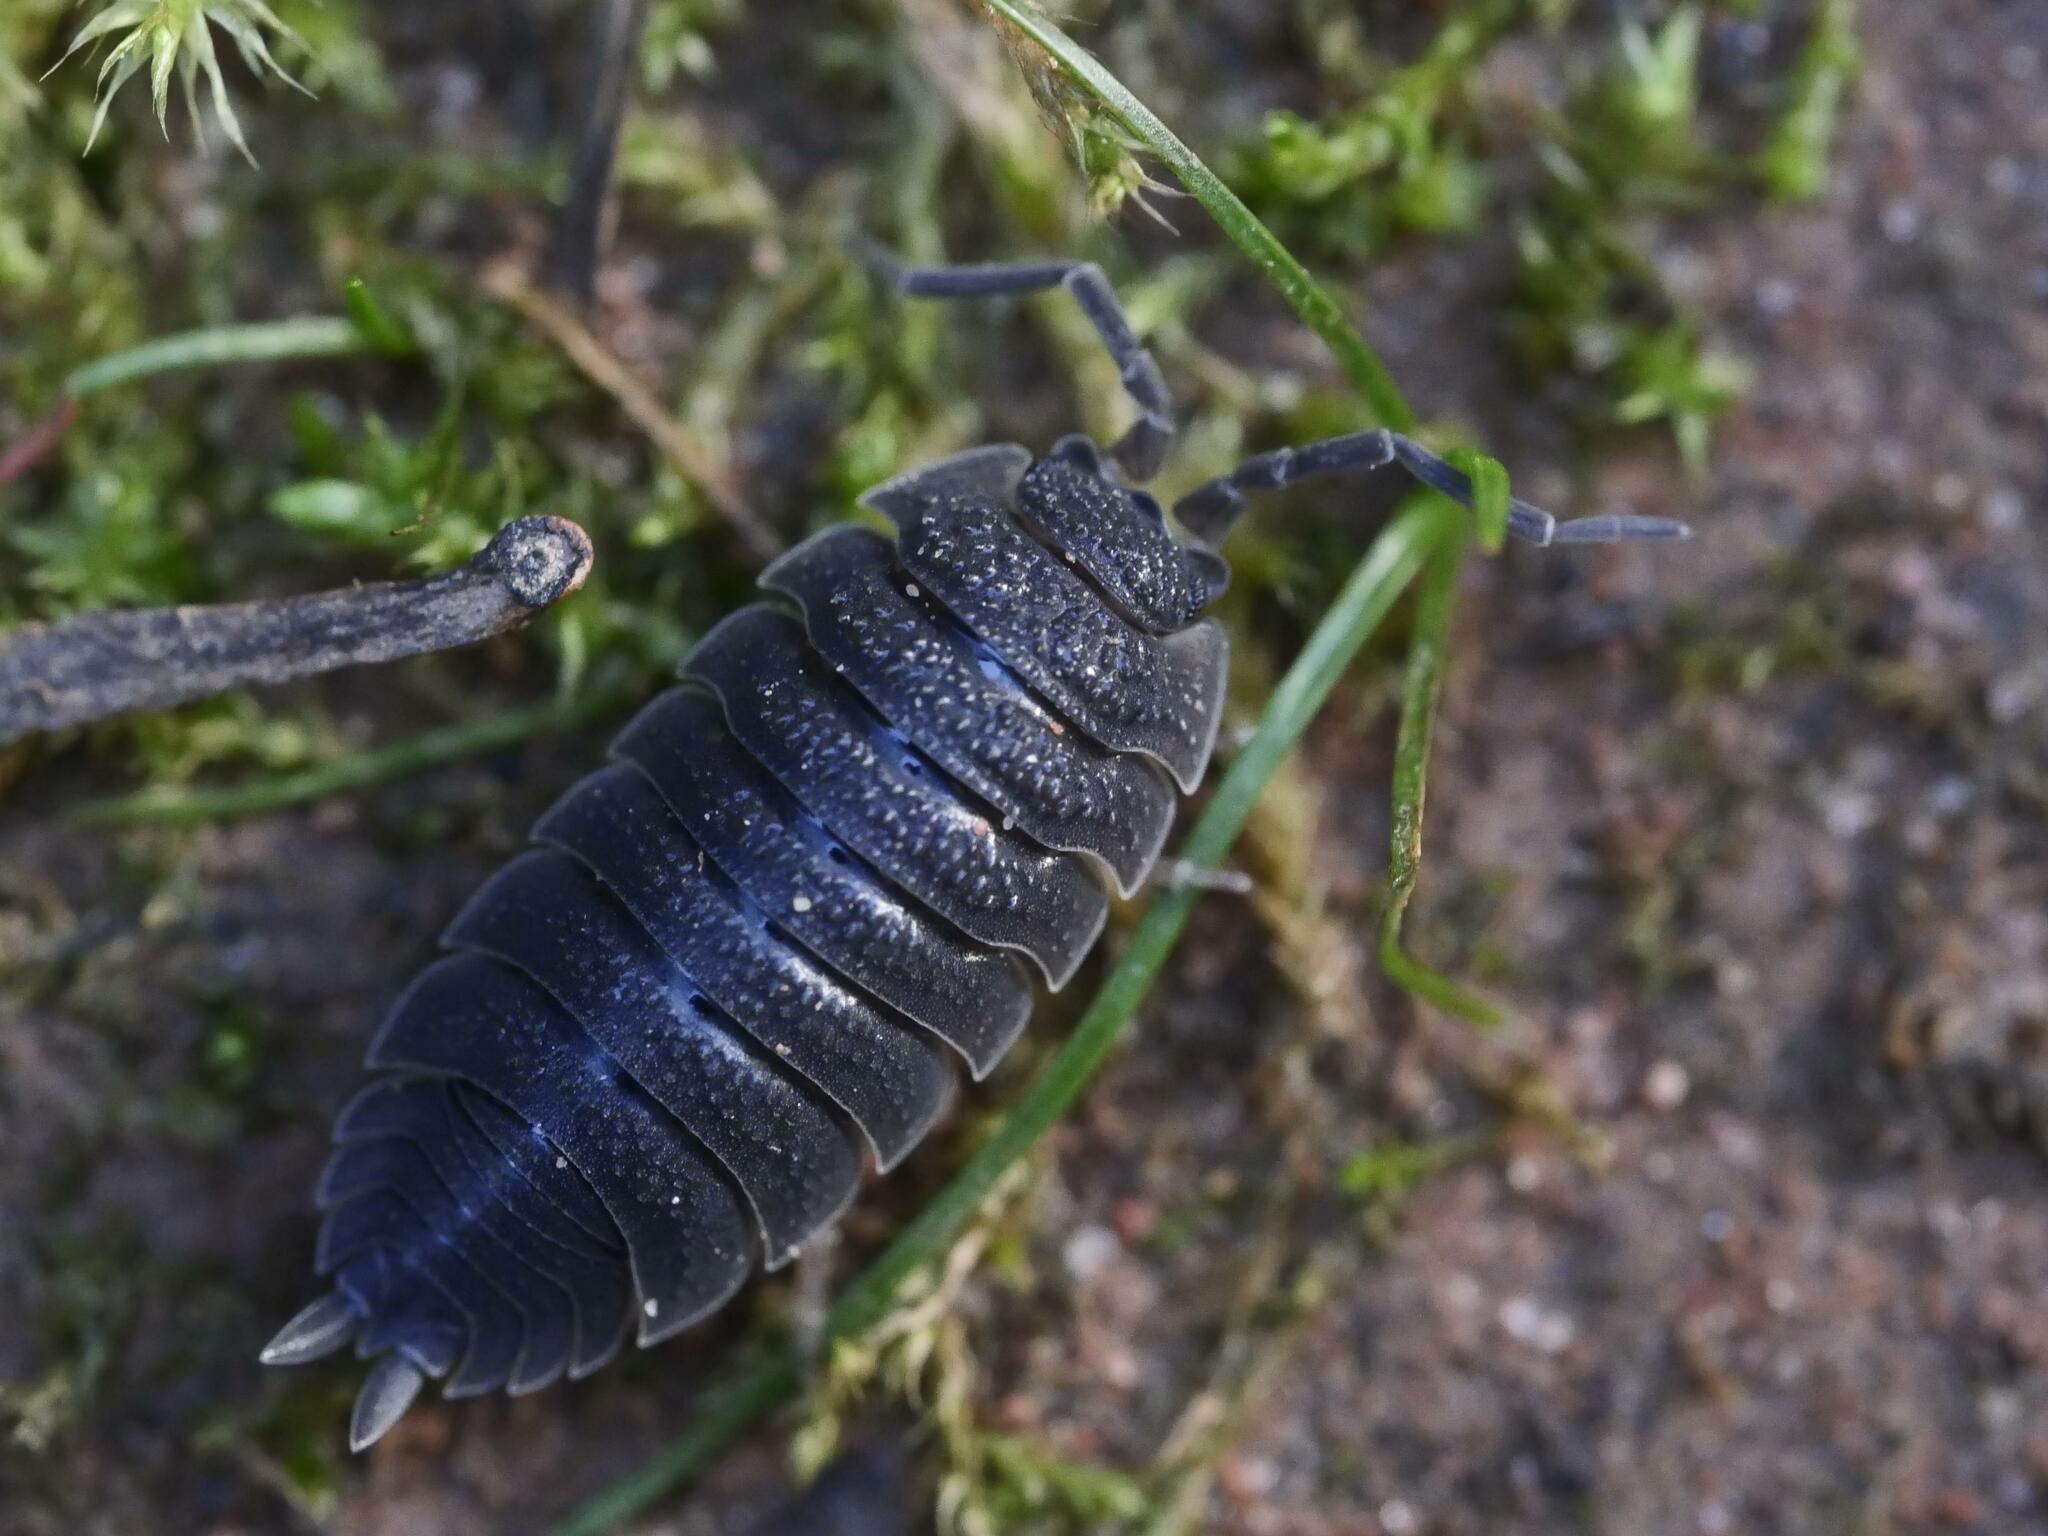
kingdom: Animalia
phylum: Arthropoda
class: Malacostraca
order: Isopoda
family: Porcellionidae
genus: Porcellio
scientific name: Porcellio scaber
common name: Common rough woodlouse
